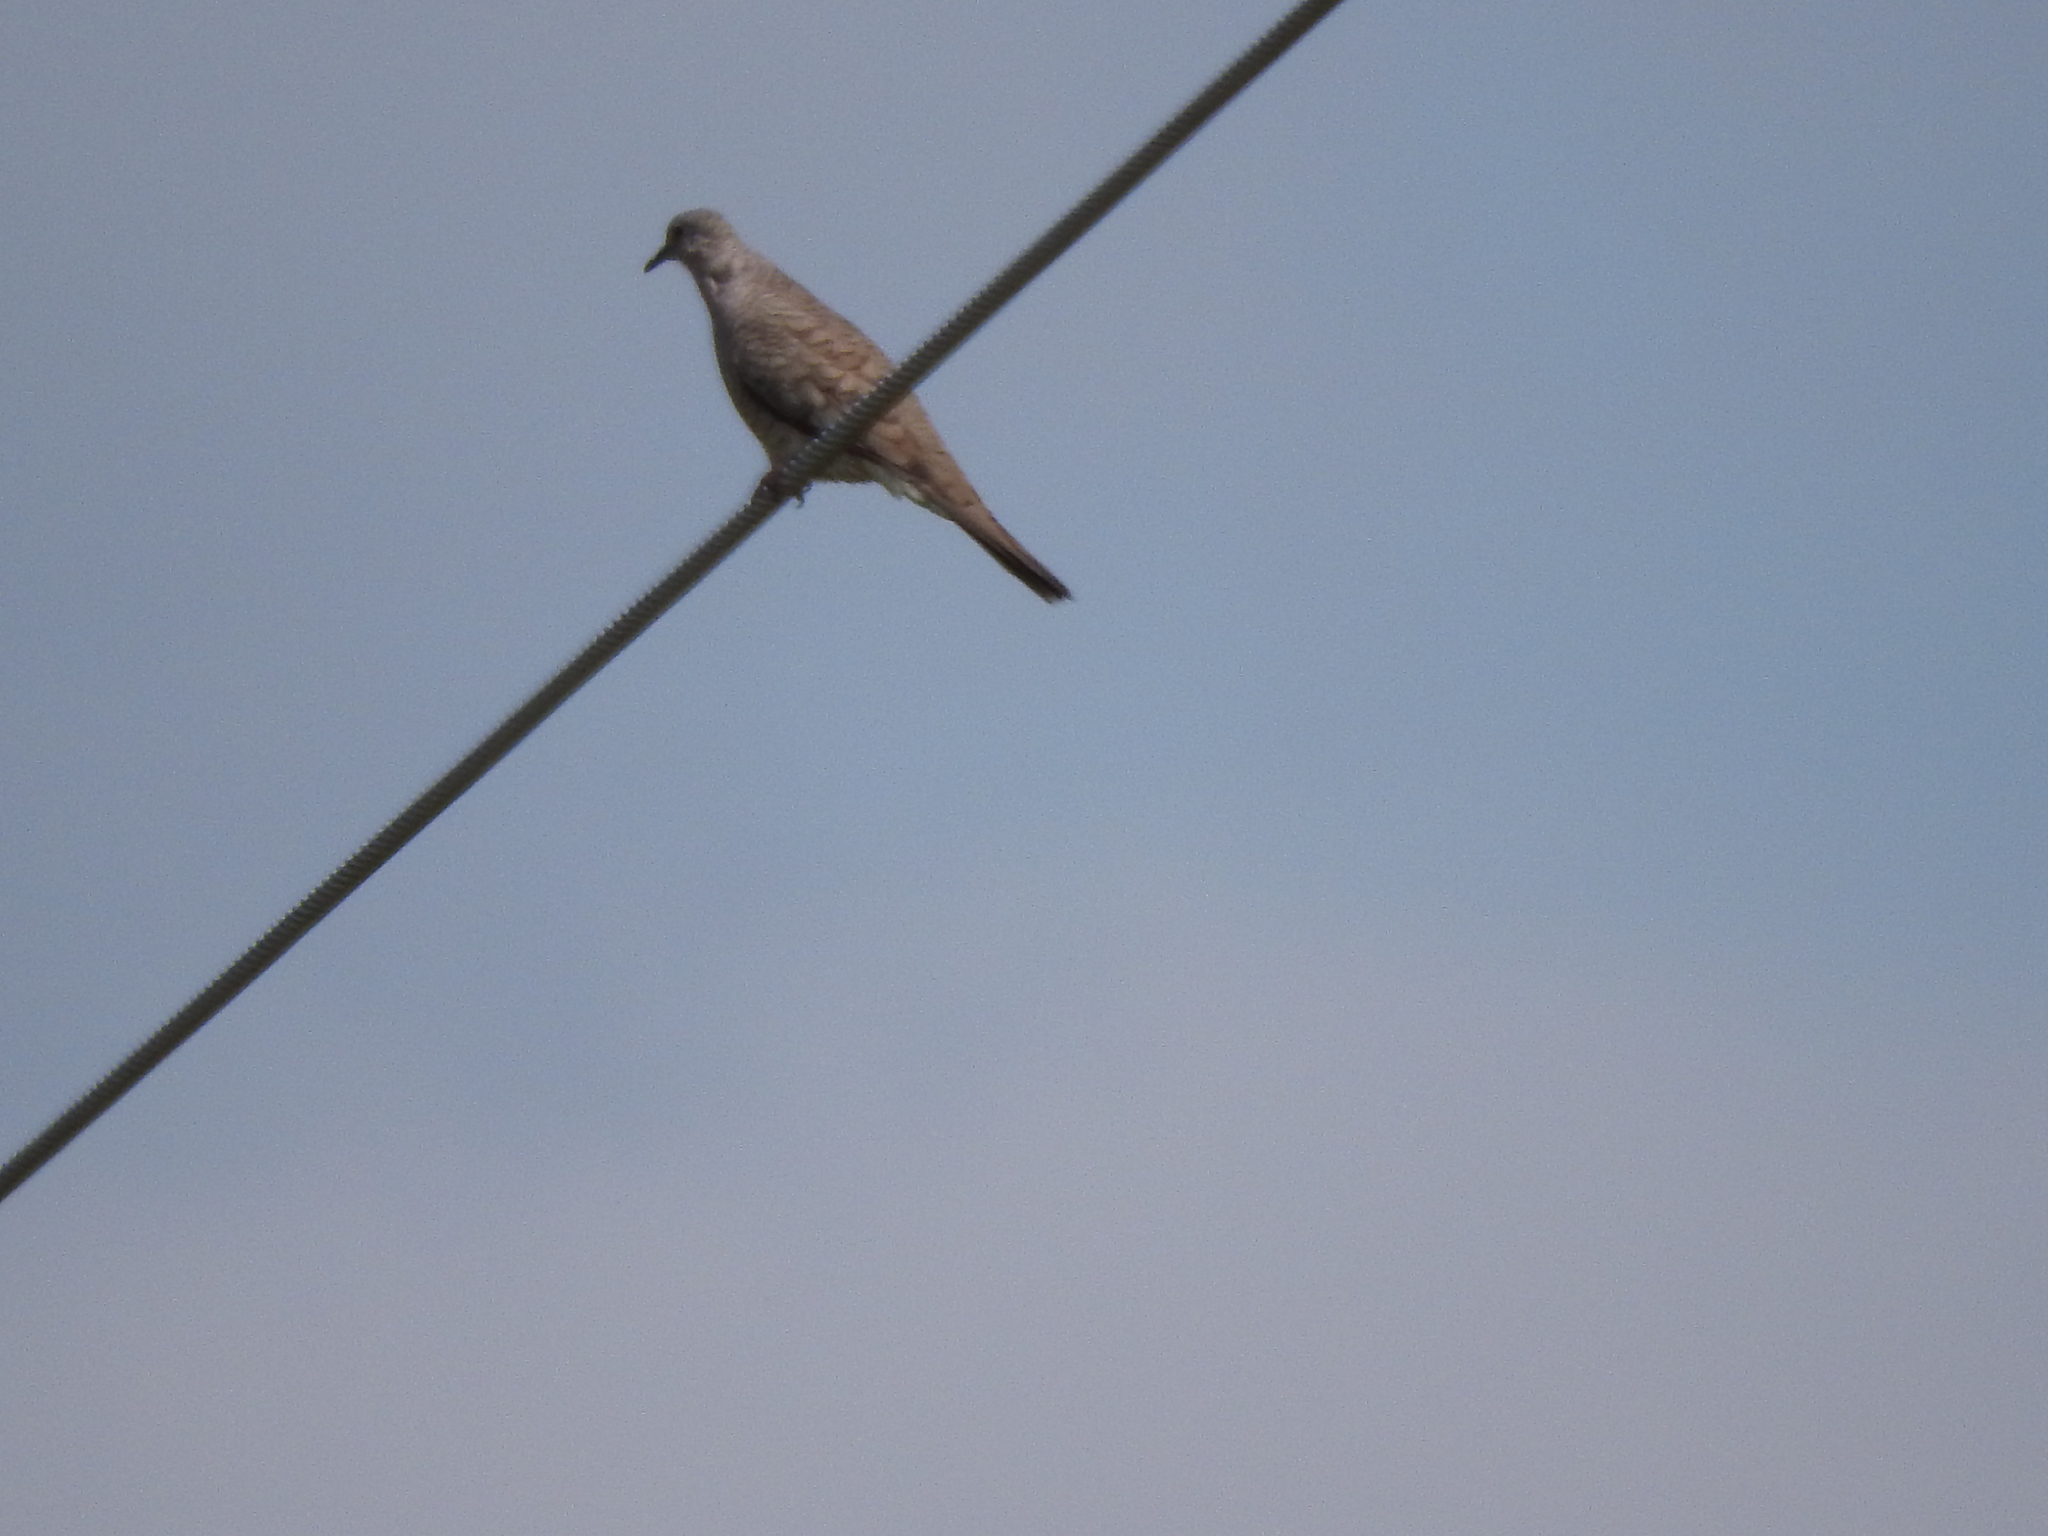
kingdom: Animalia
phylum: Chordata
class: Aves
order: Columbiformes
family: Columbidae
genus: Columbina
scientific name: Columbina inca
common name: Inca dove
